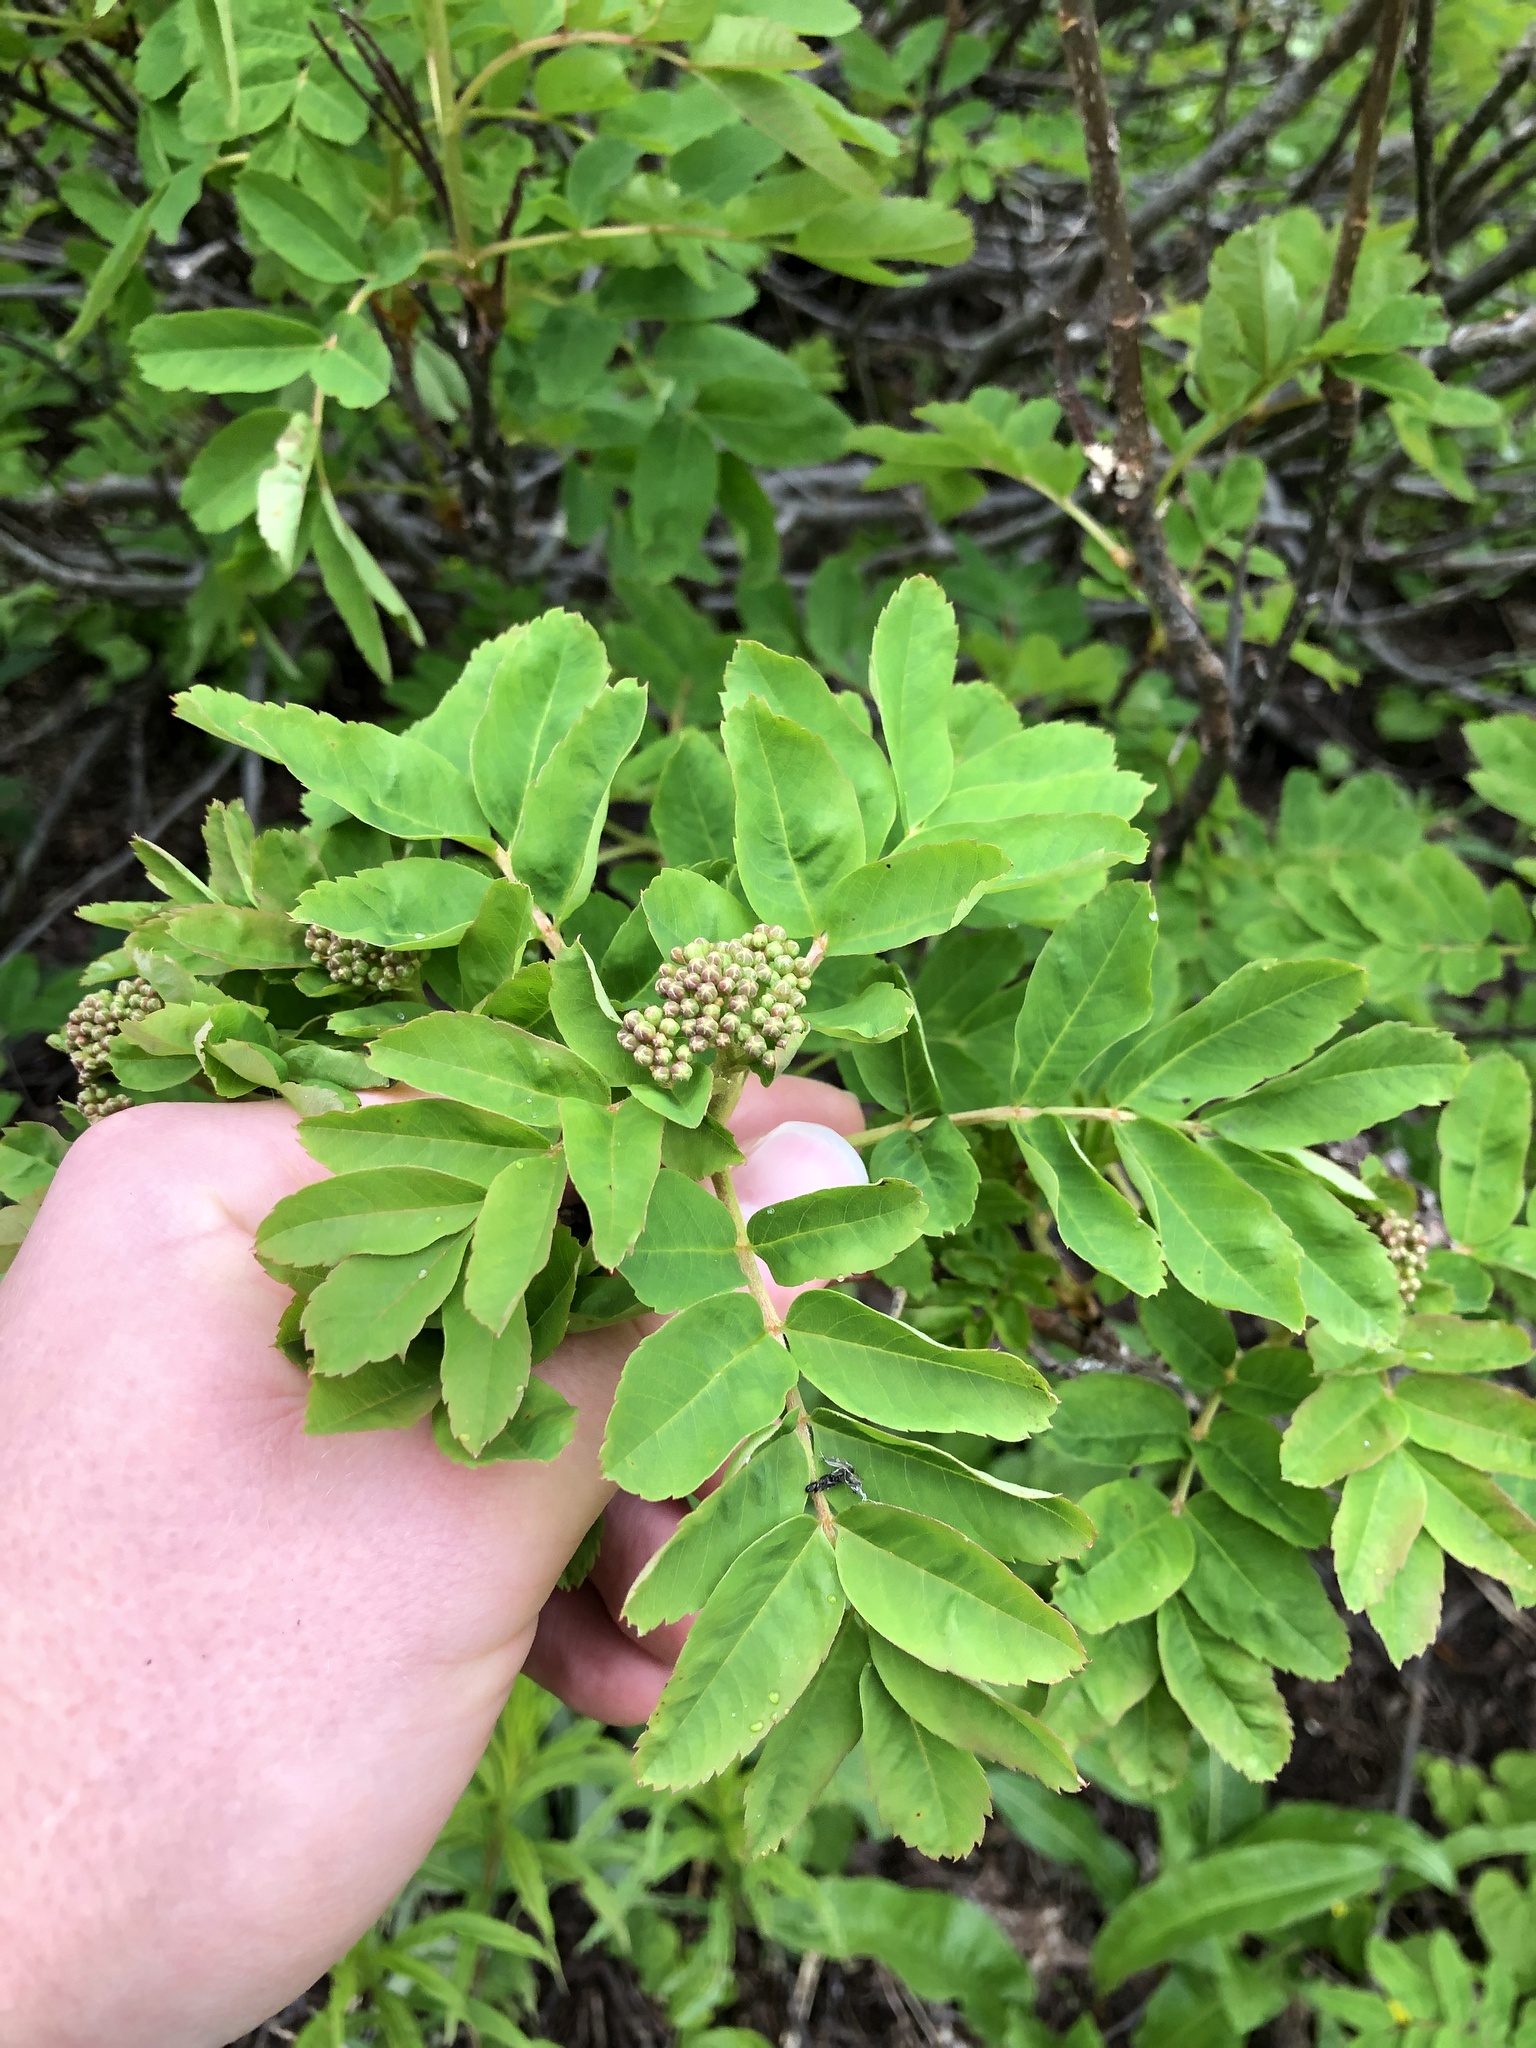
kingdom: Plantae
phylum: Tracheophyta
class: Magnoliopsida
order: Rosales
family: Rosaceae
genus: Sorbus
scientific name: Sorbus sitchensis
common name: Sitka mountain-ash
